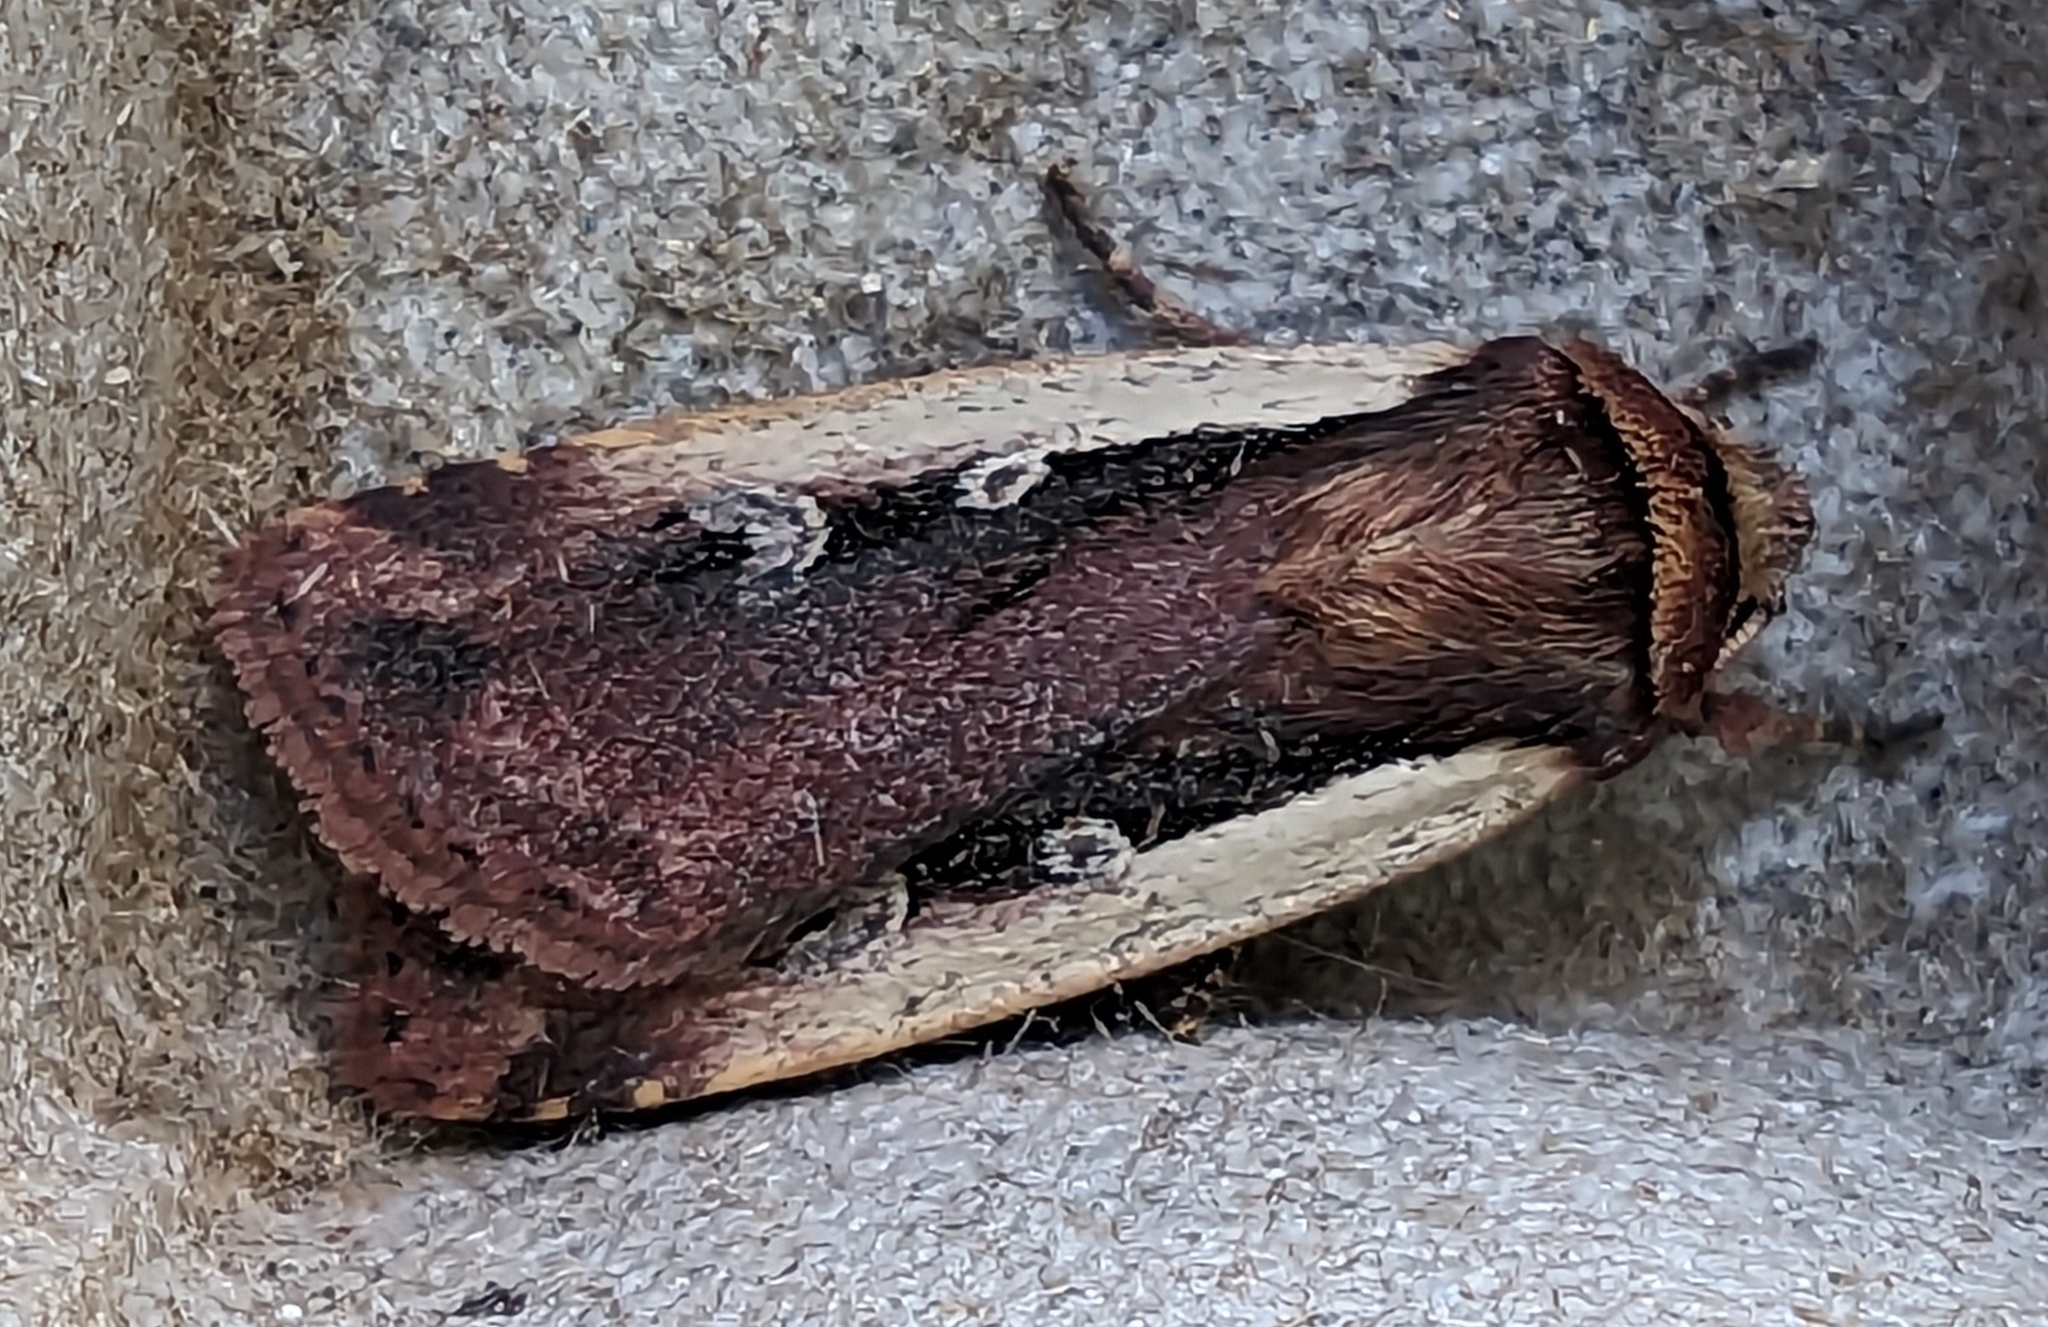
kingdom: Animalia
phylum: Arthropoda
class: Insecta
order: Lepidoptera
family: Noctuidae
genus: Ochropleura
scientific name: Ochropleura plecta
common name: Flame shoulder
